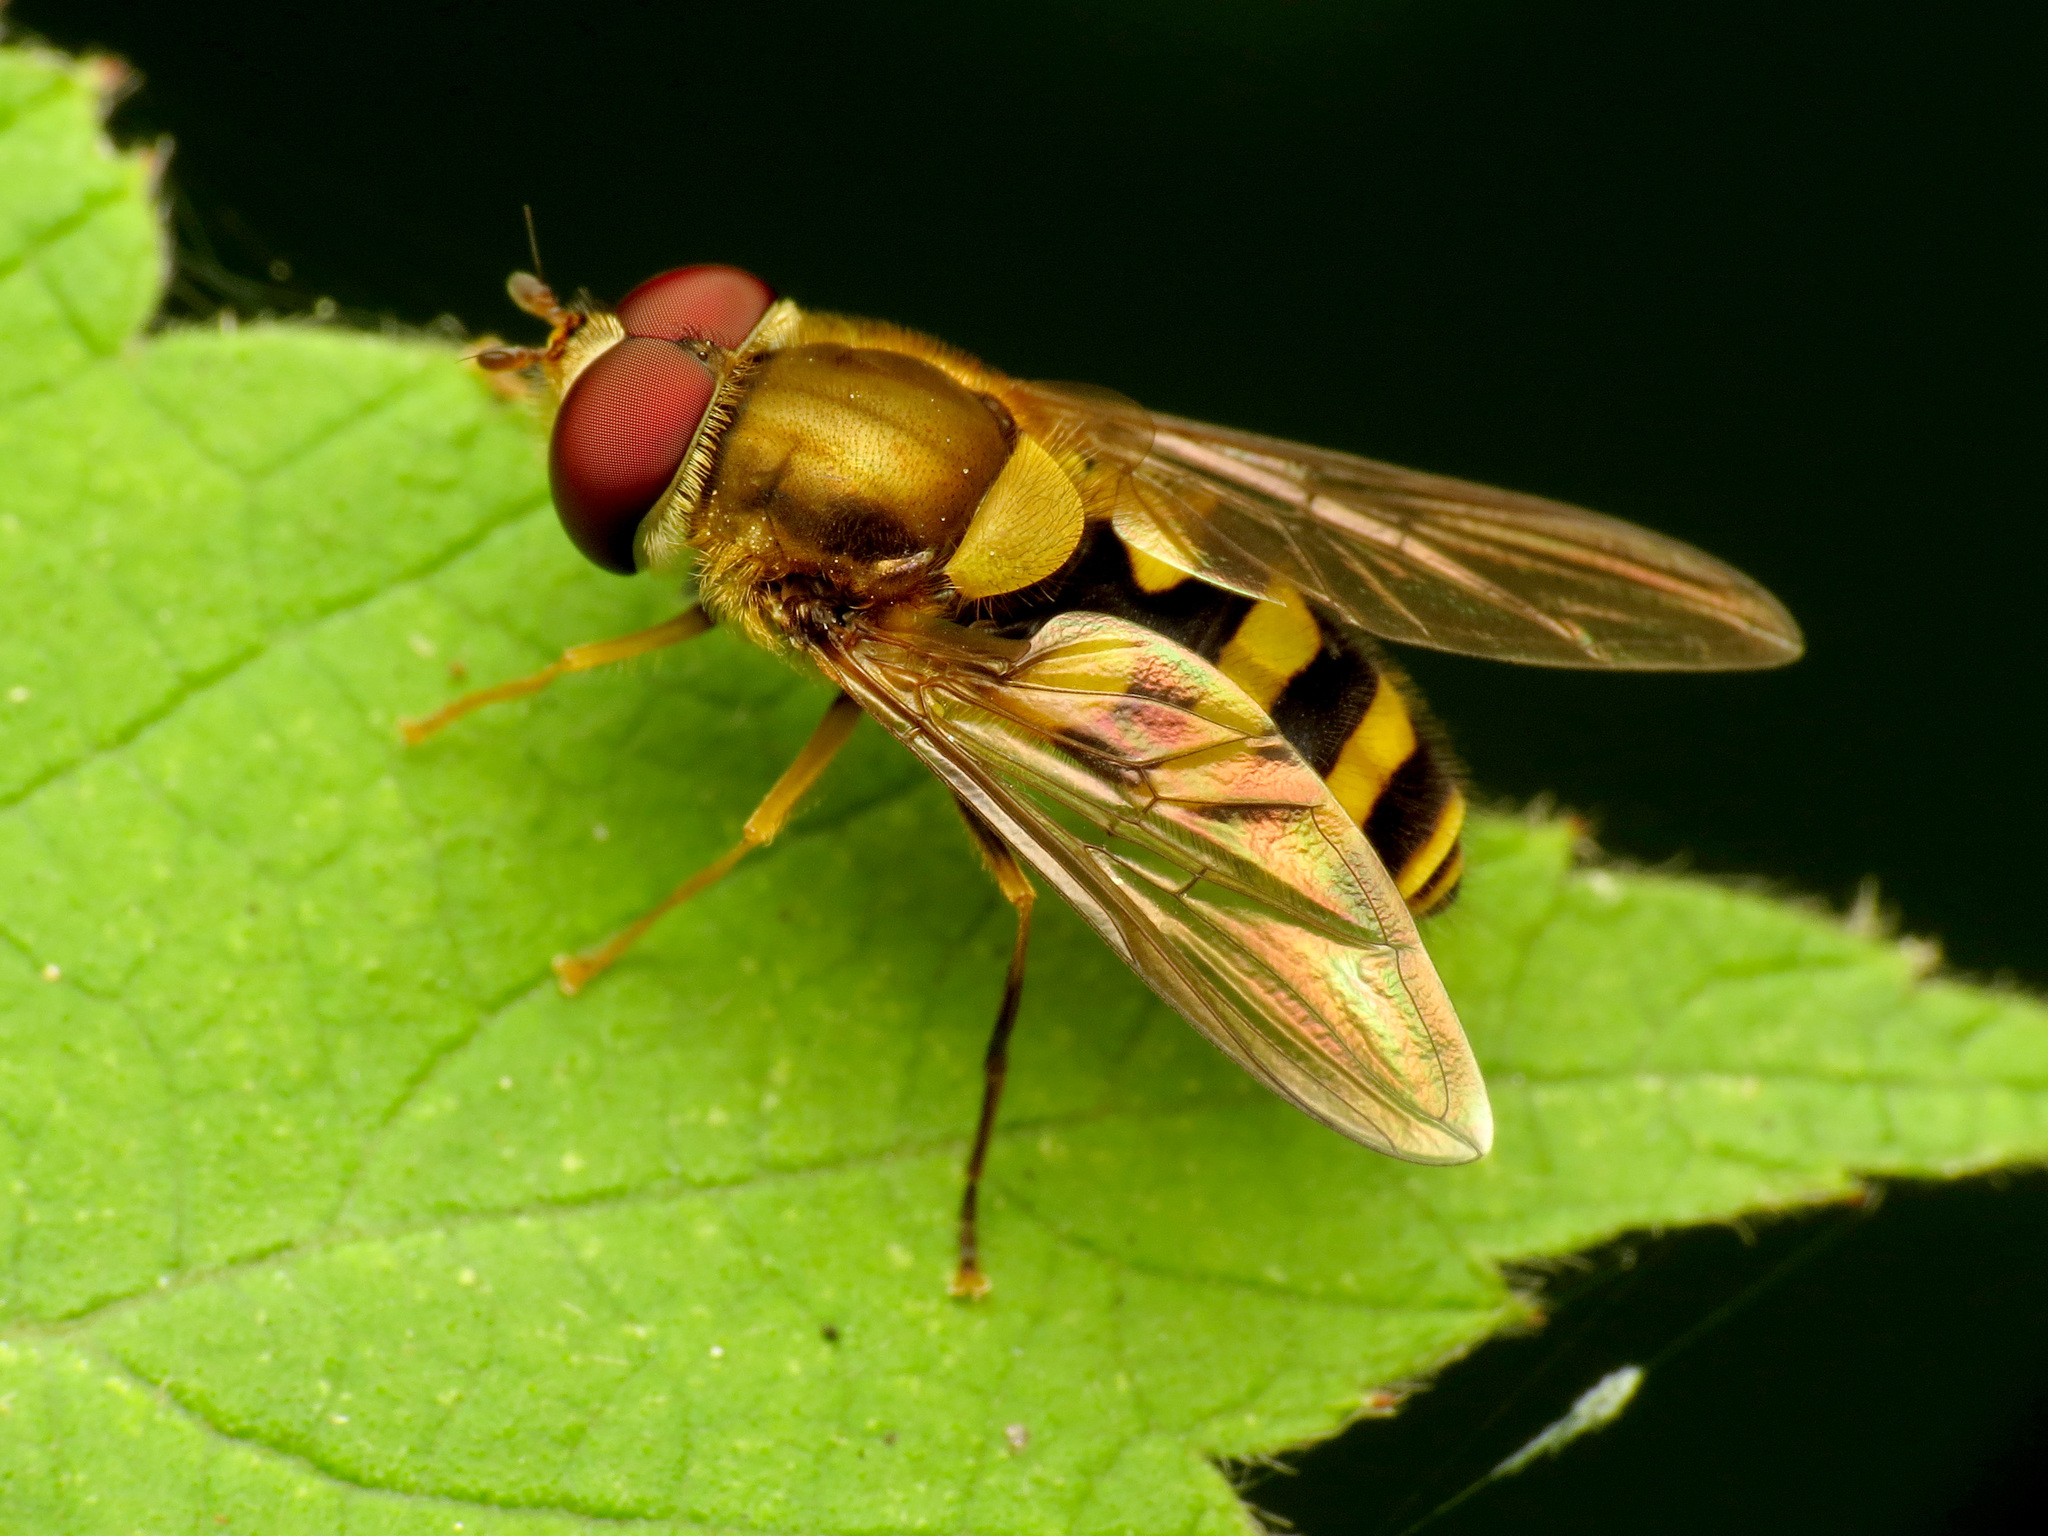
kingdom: Animalia
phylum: Arthropoda
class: Insecta
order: Diptera
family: Syrphidae
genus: Syrphus
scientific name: Syrphus
